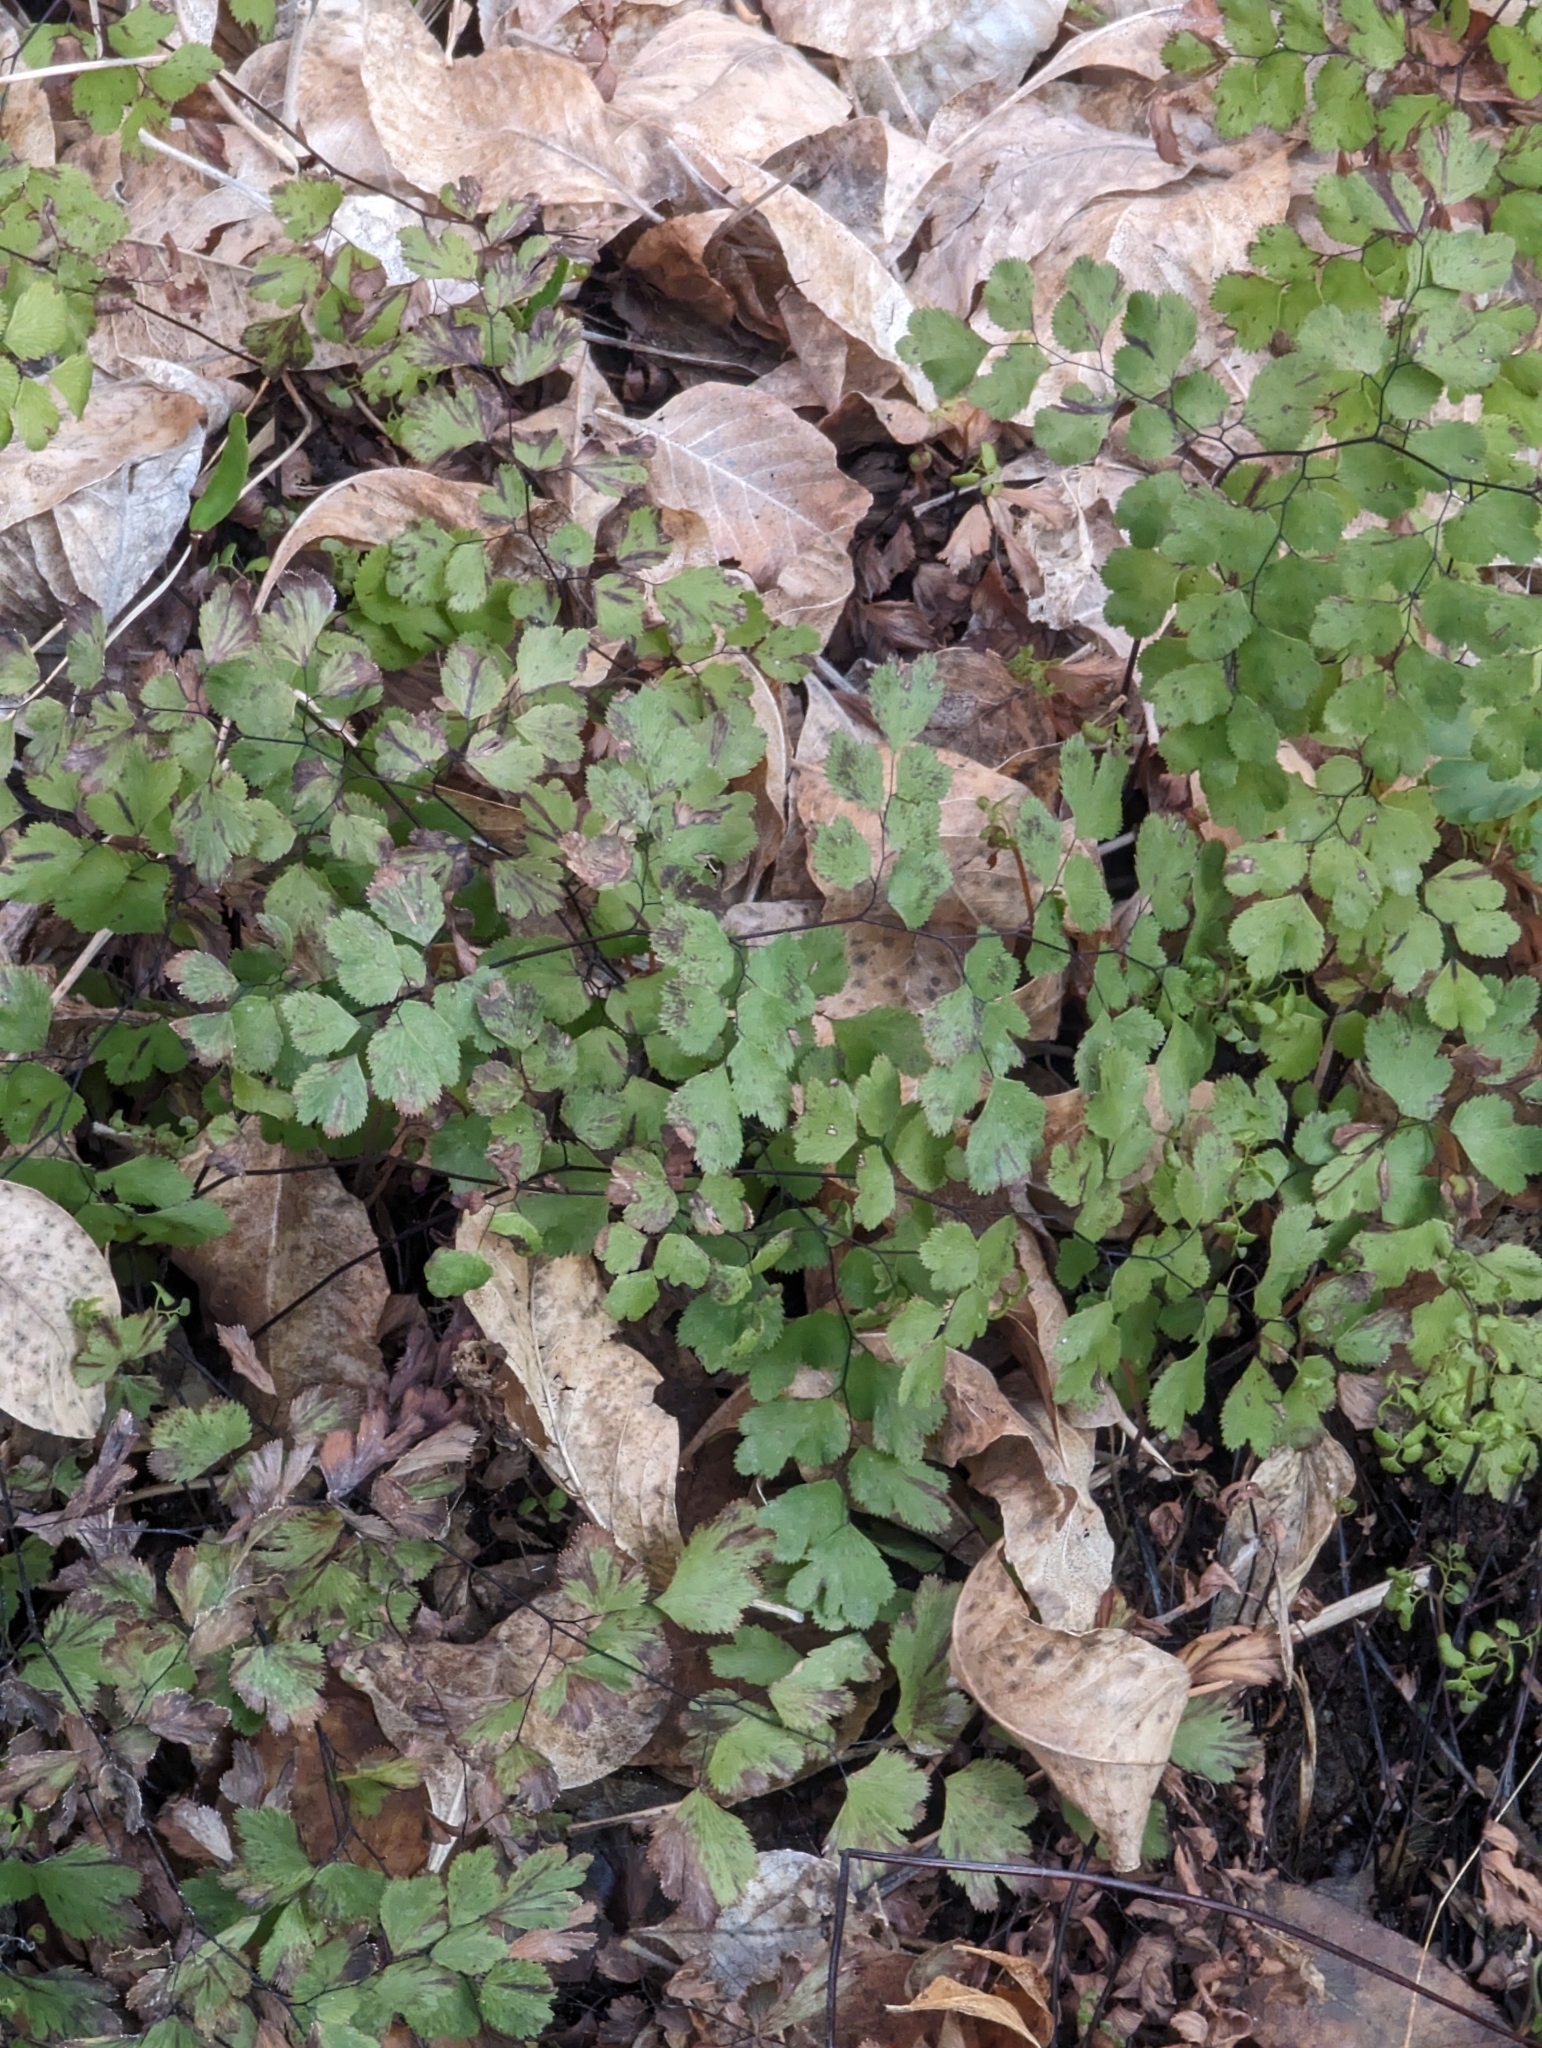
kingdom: Plantae
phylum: Tracheophyta
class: Polypodiopsida
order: Polypodiales
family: Pteridaceae
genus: Adiantum
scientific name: Adiantum capillus-veneris
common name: Maidenhair fern
